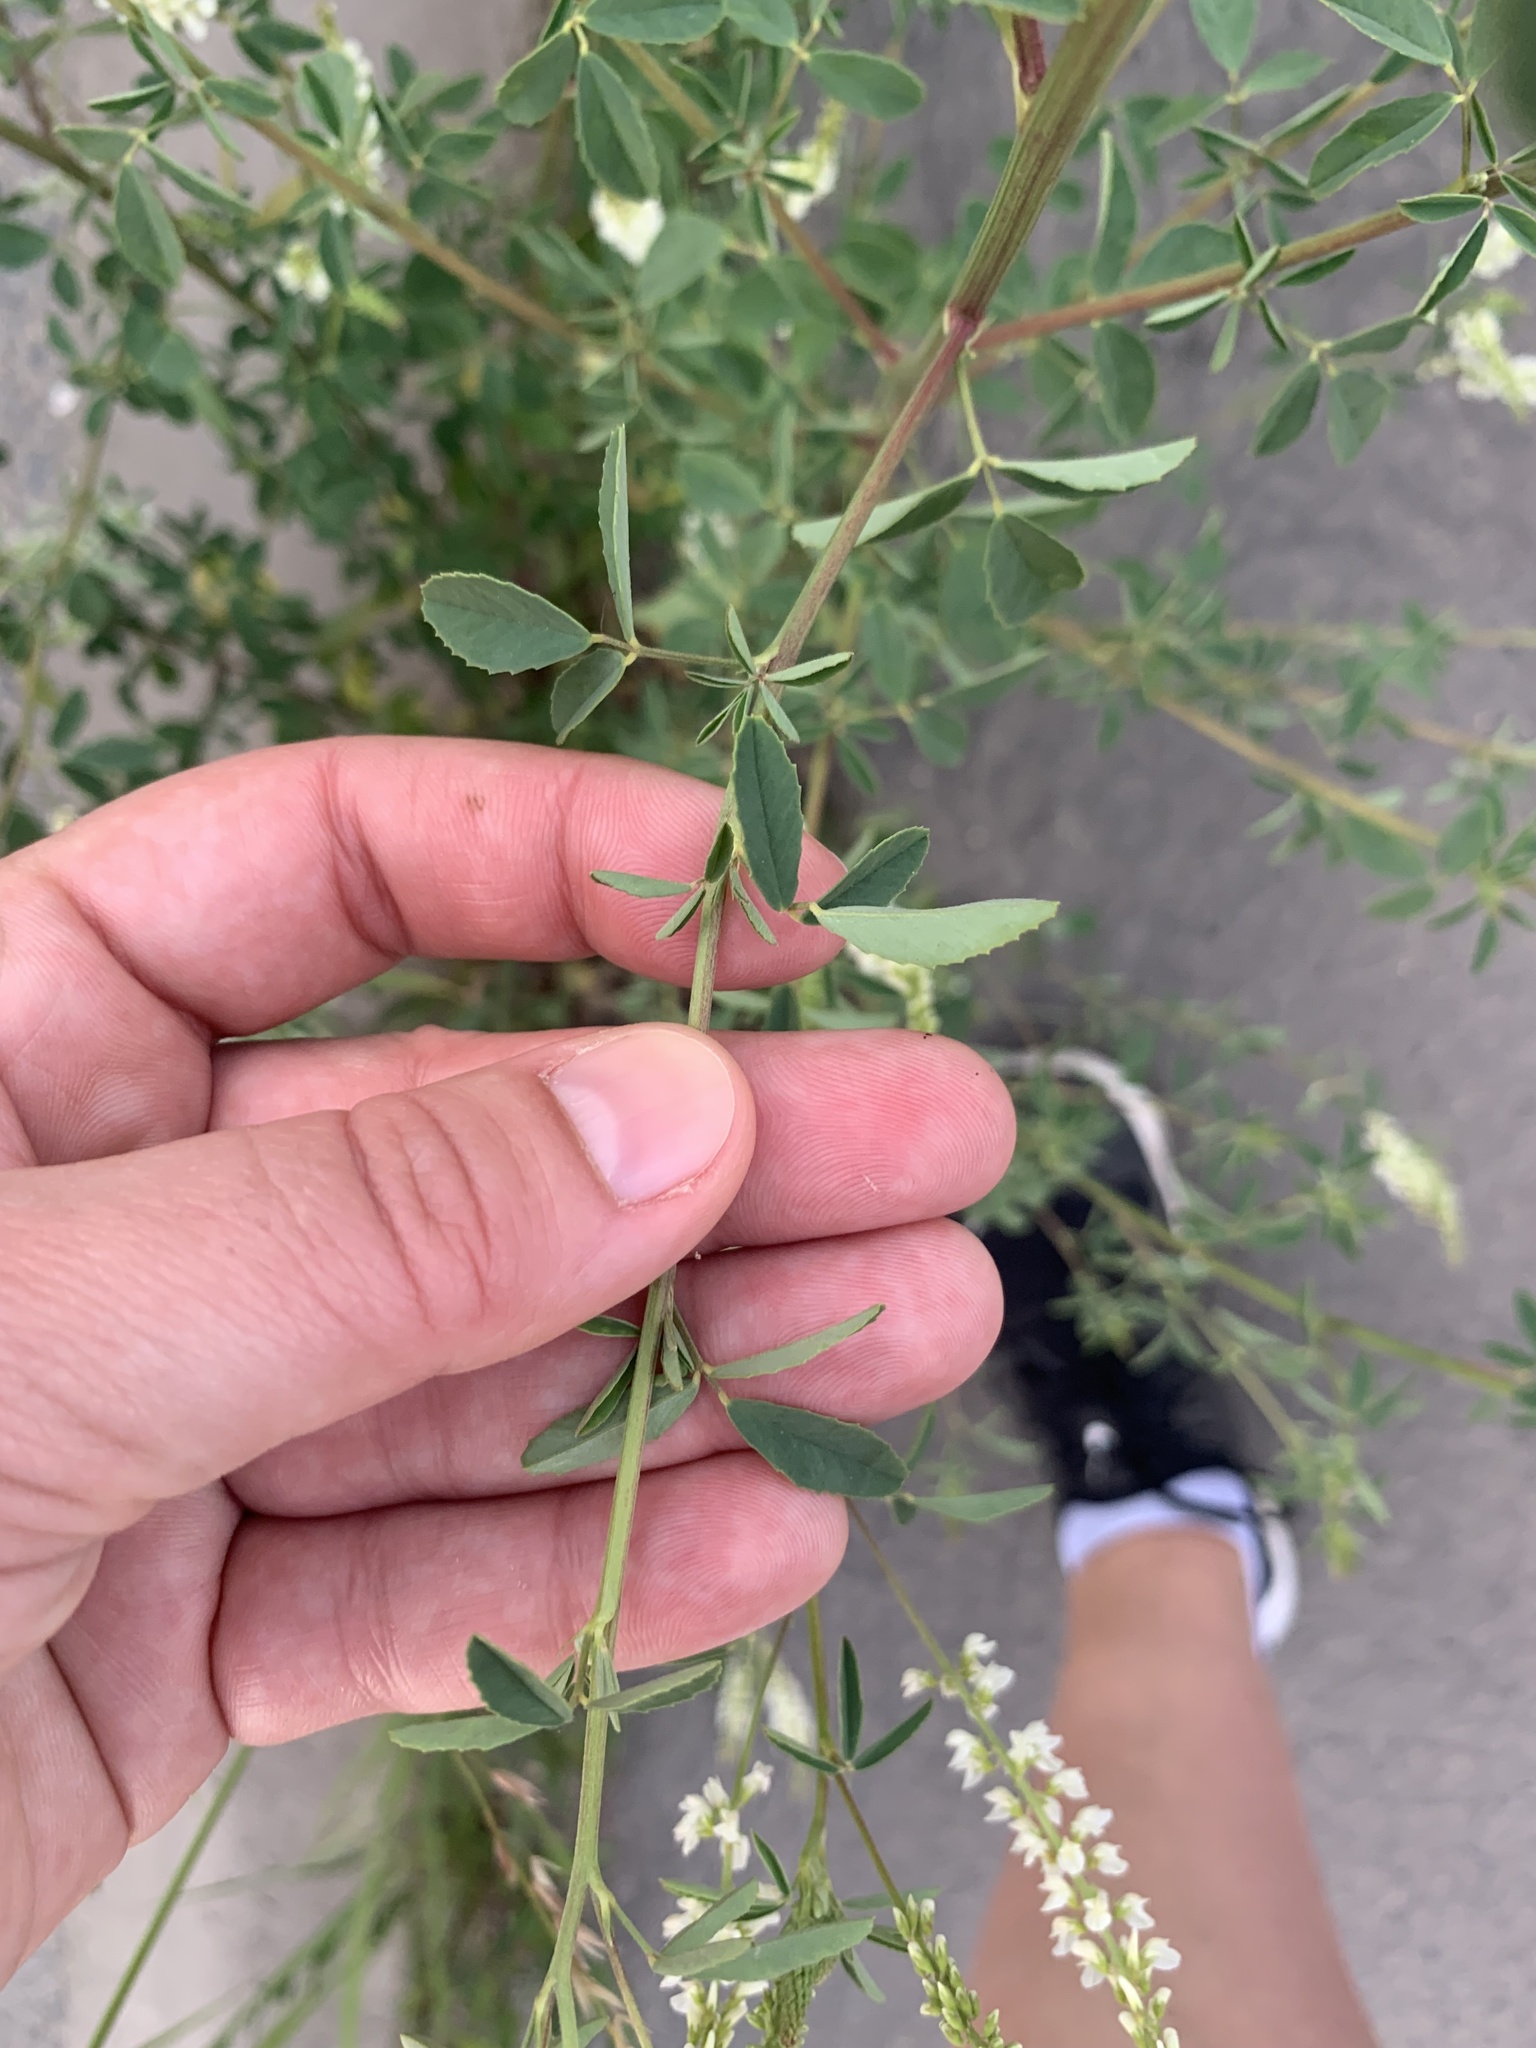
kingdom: Plantae
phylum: Tracheophyta
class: Magnoliopsida
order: Fabales
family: Fabaceae
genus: Melilotus
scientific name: Melilotus albus
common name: White melilot
